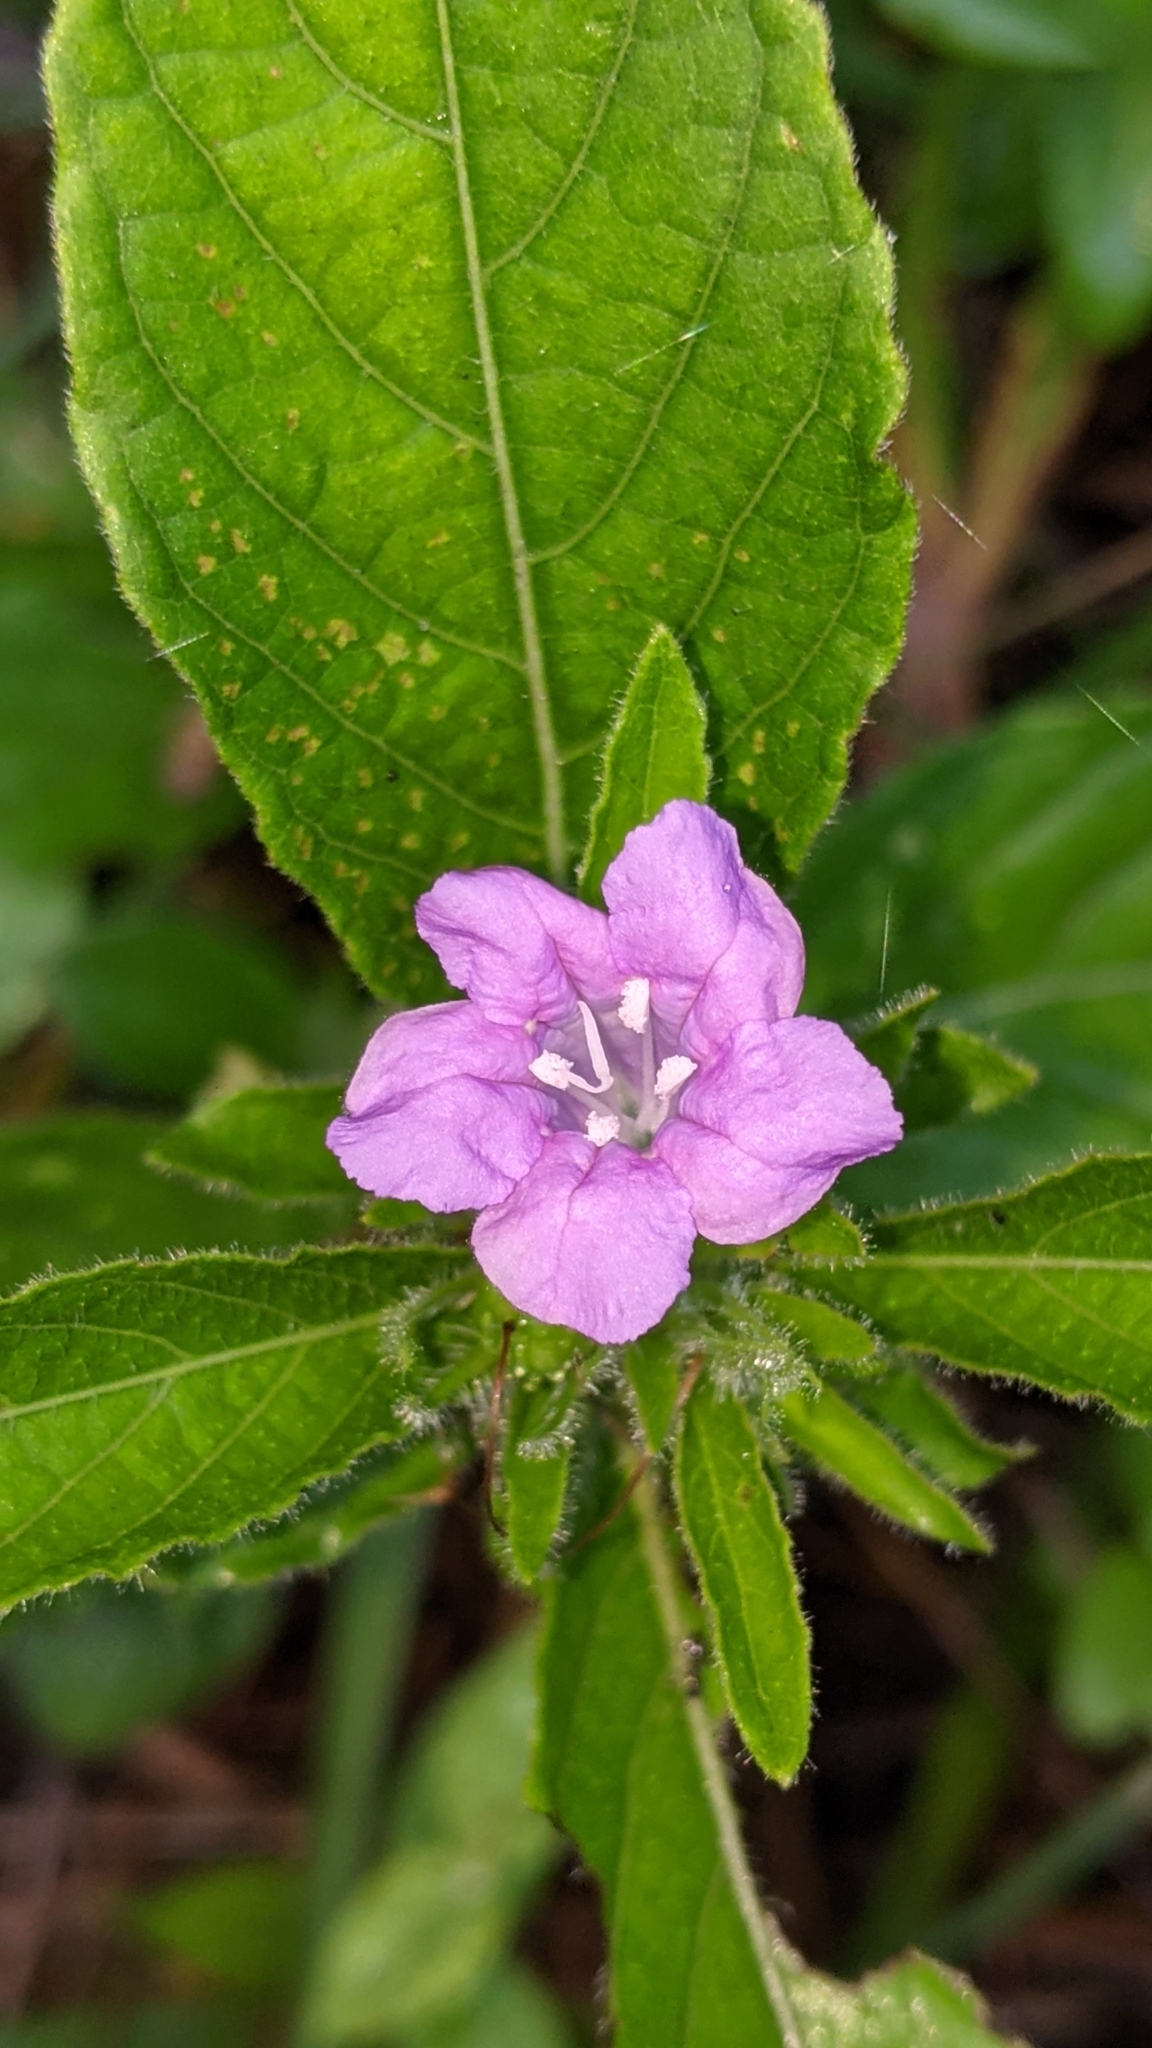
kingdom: Plantae
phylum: Tracheophyta
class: Magnoliopsida
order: Lamiales
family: Acanthaceae
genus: Ruellia
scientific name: Ruellia caroliniensis
